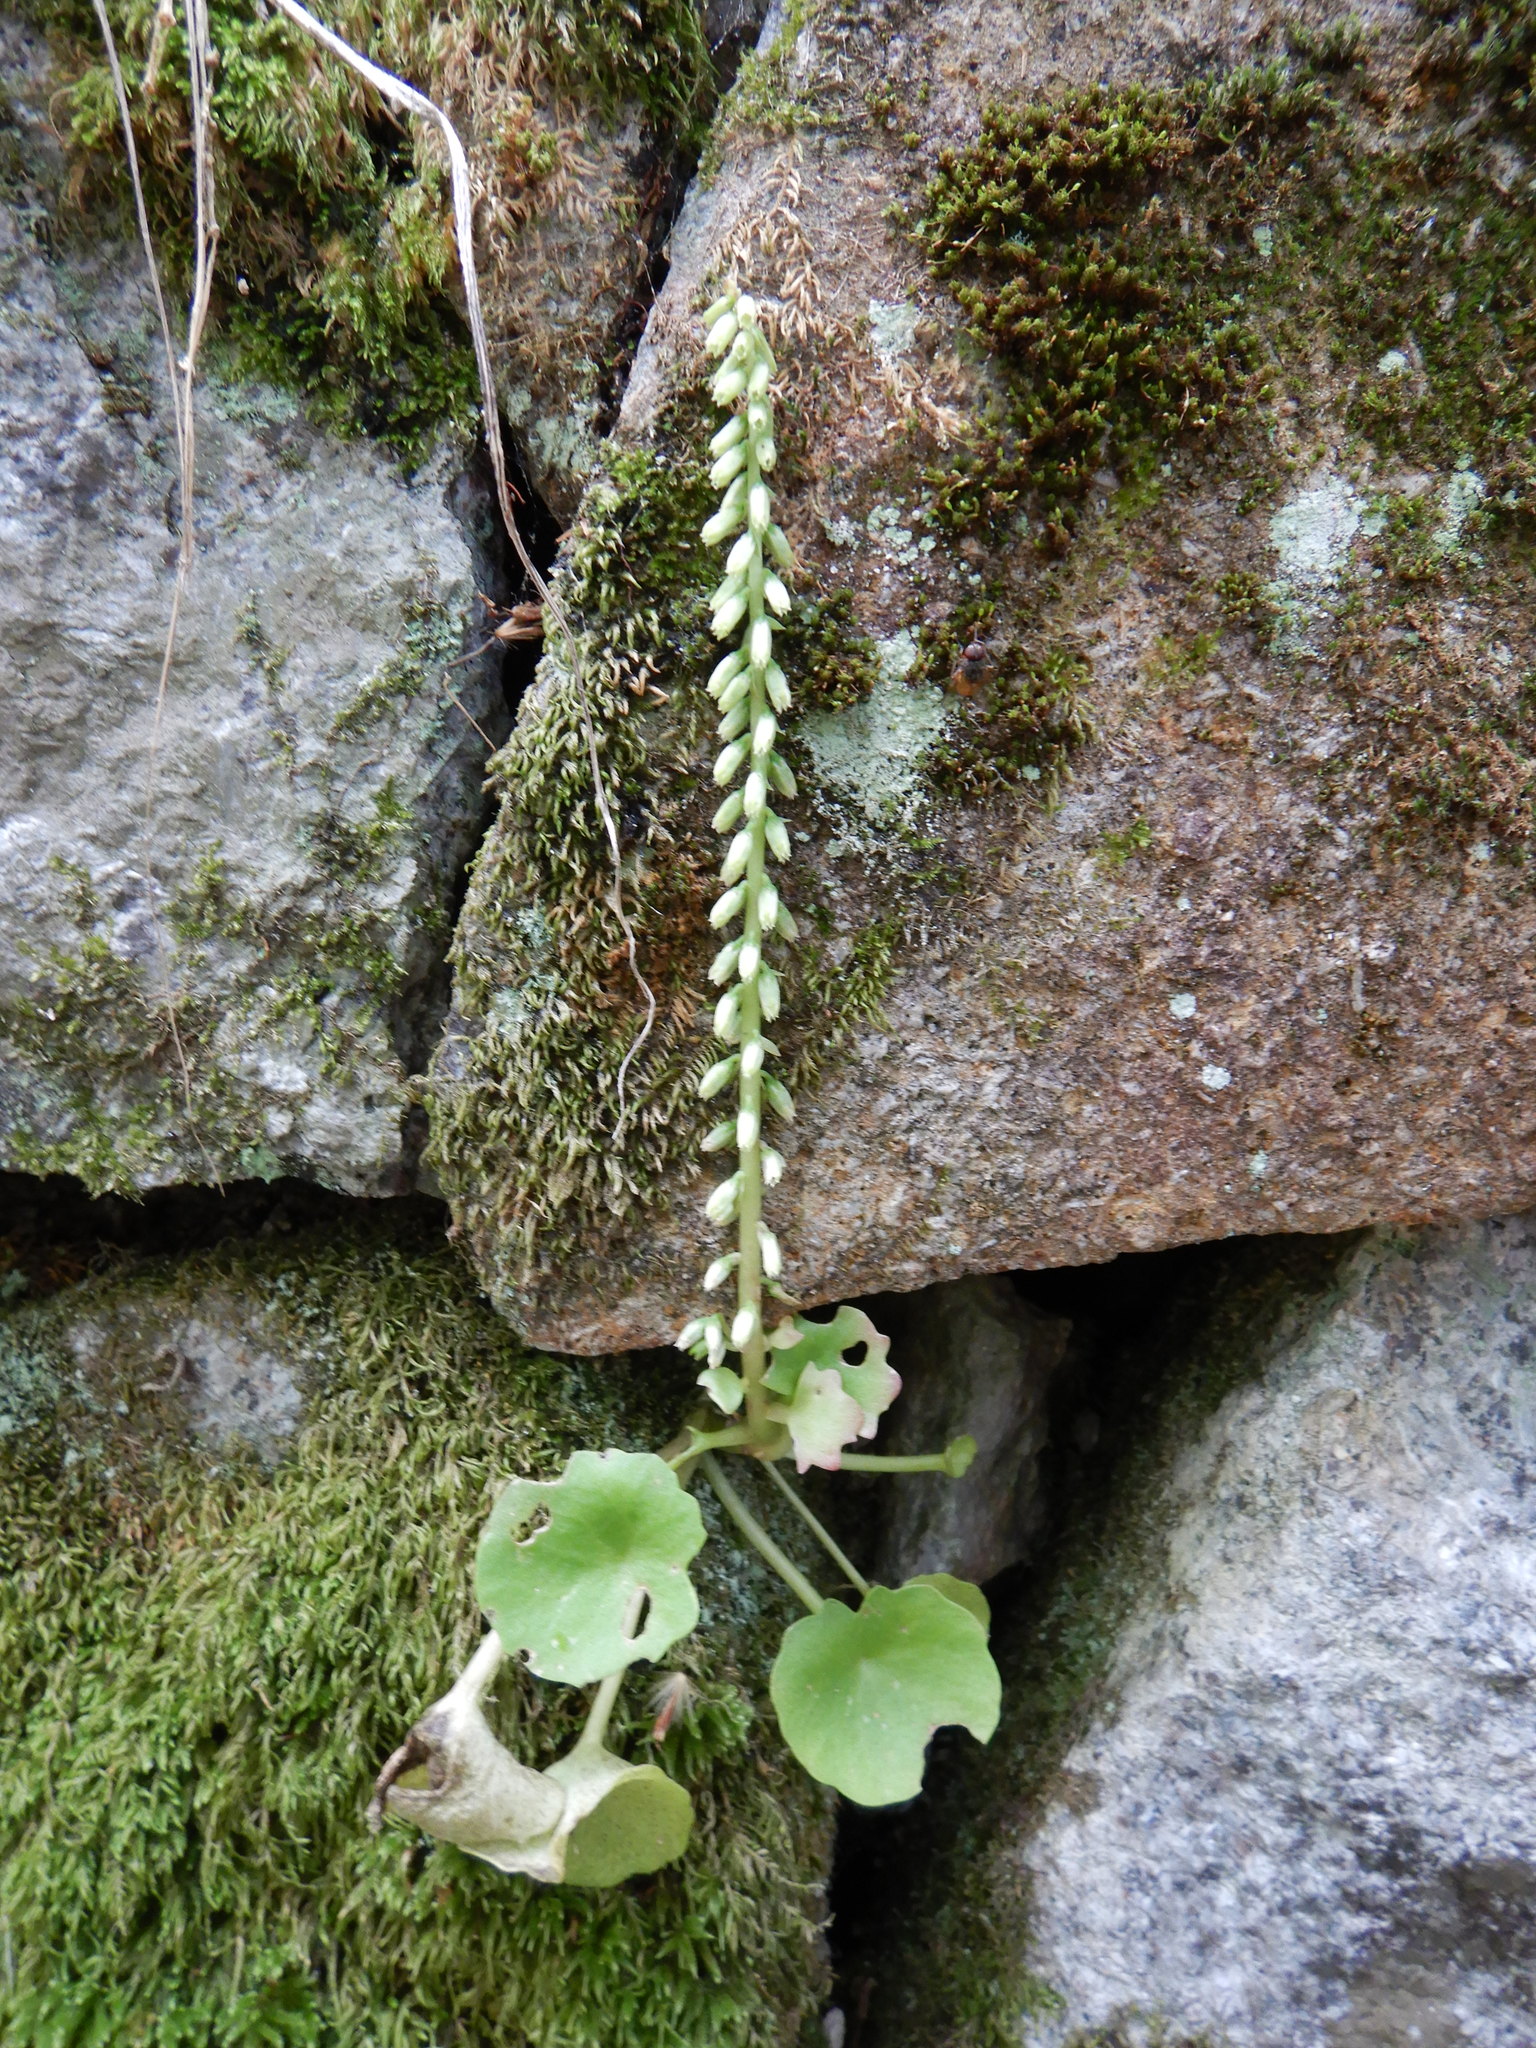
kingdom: Plantae
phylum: Tracheophyta
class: Magnoliopsida
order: Saxifragales
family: Crassulaceae
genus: Umbilicus
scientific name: Umbilicus rupestris
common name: Navelwort
